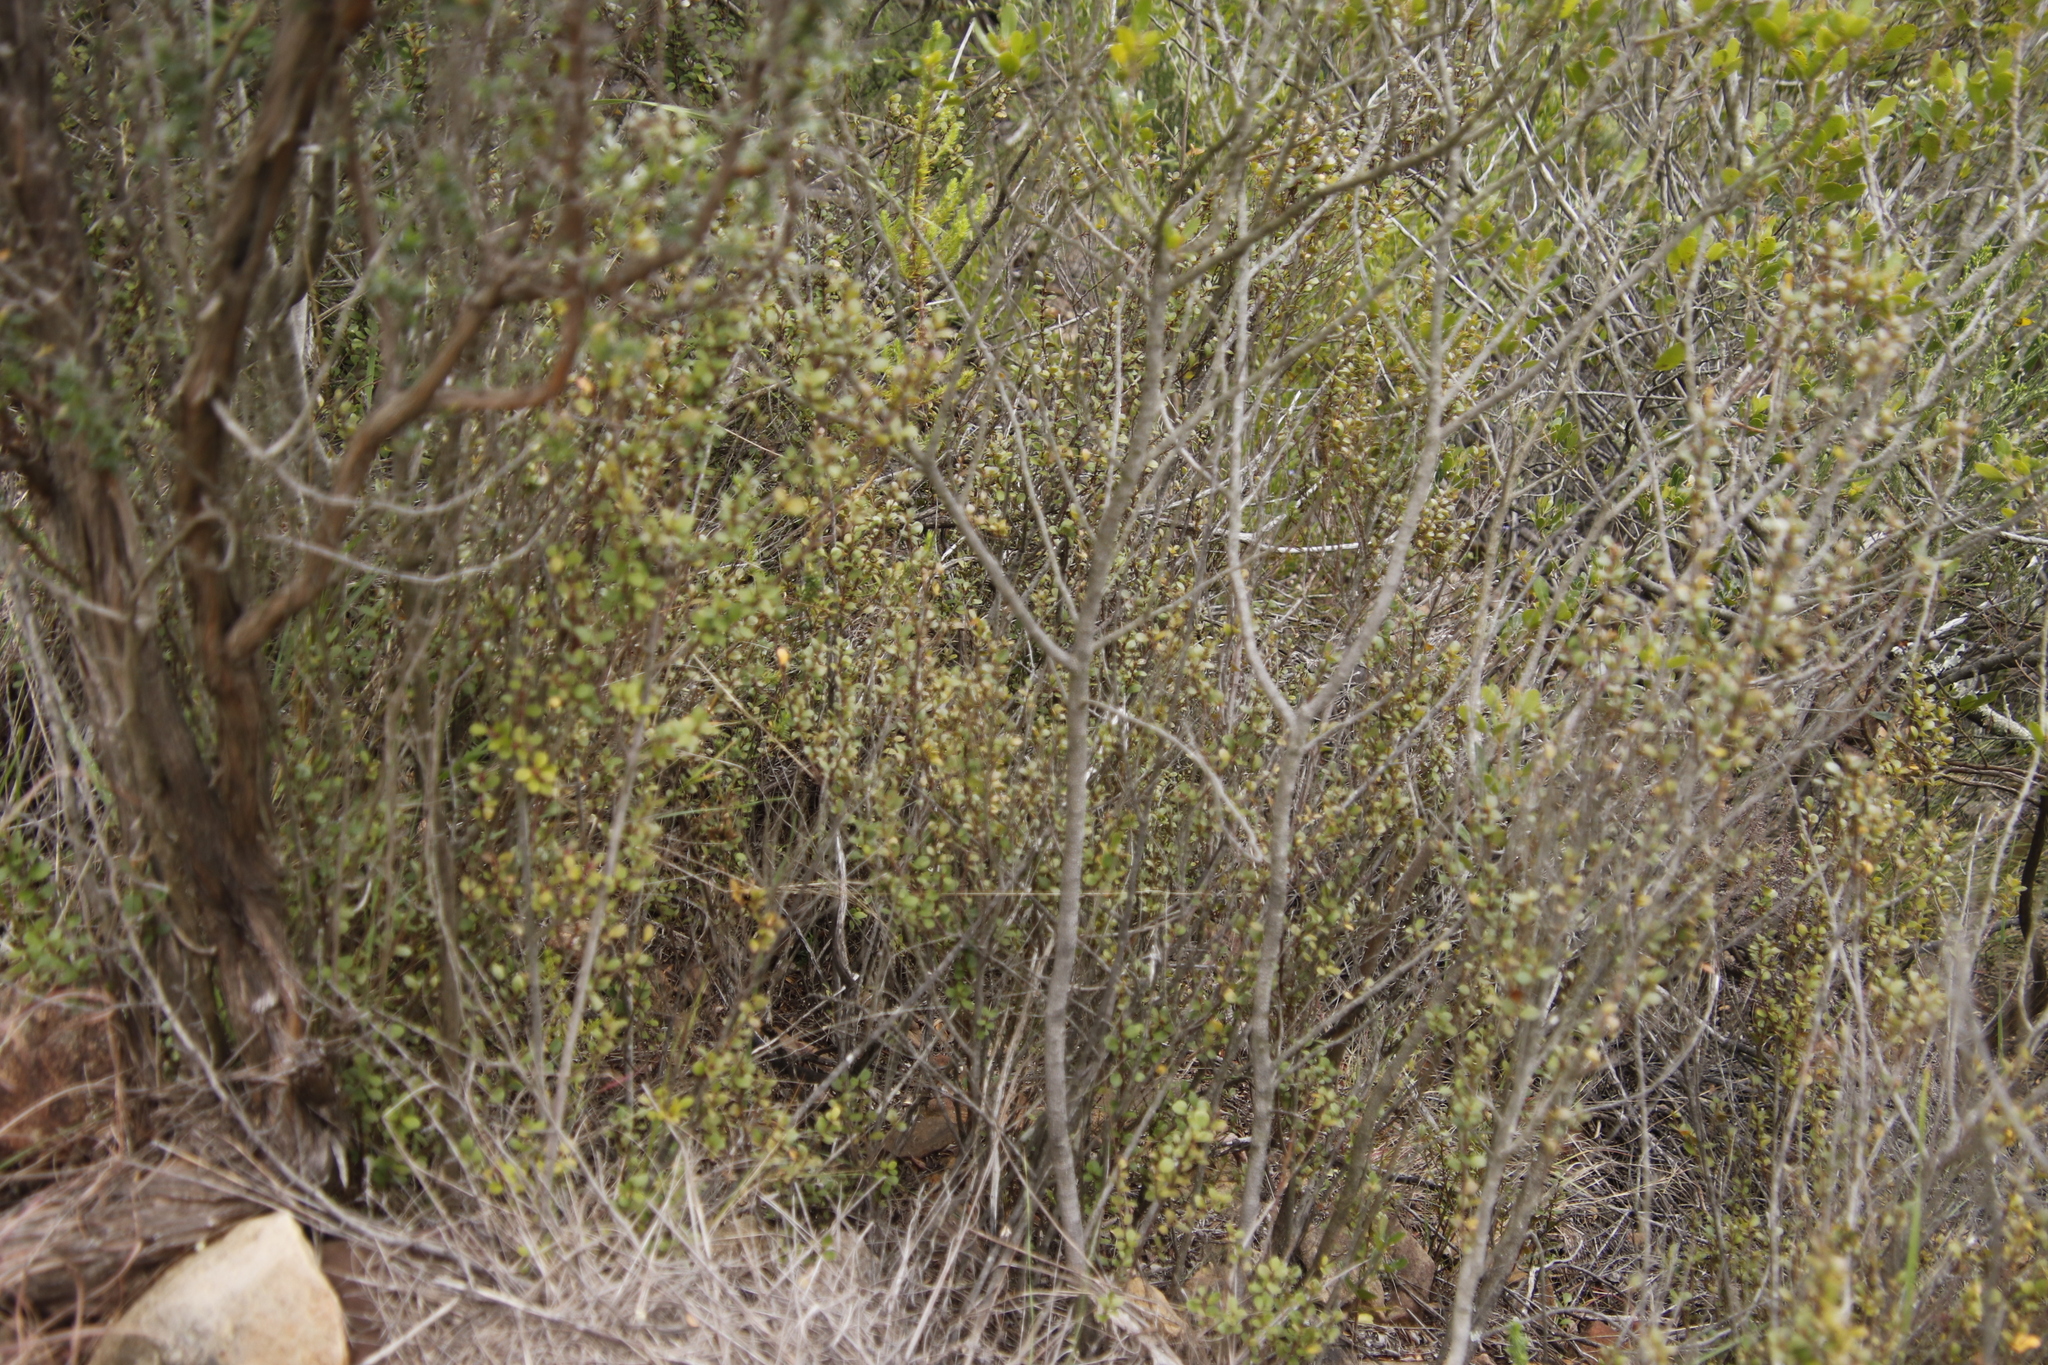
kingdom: Plantae
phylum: Tracheophyta
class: Magnoliopsida
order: Ericales
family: Primulaceae
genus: Myrsine
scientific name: Myrsine africana
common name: African-boxwood
